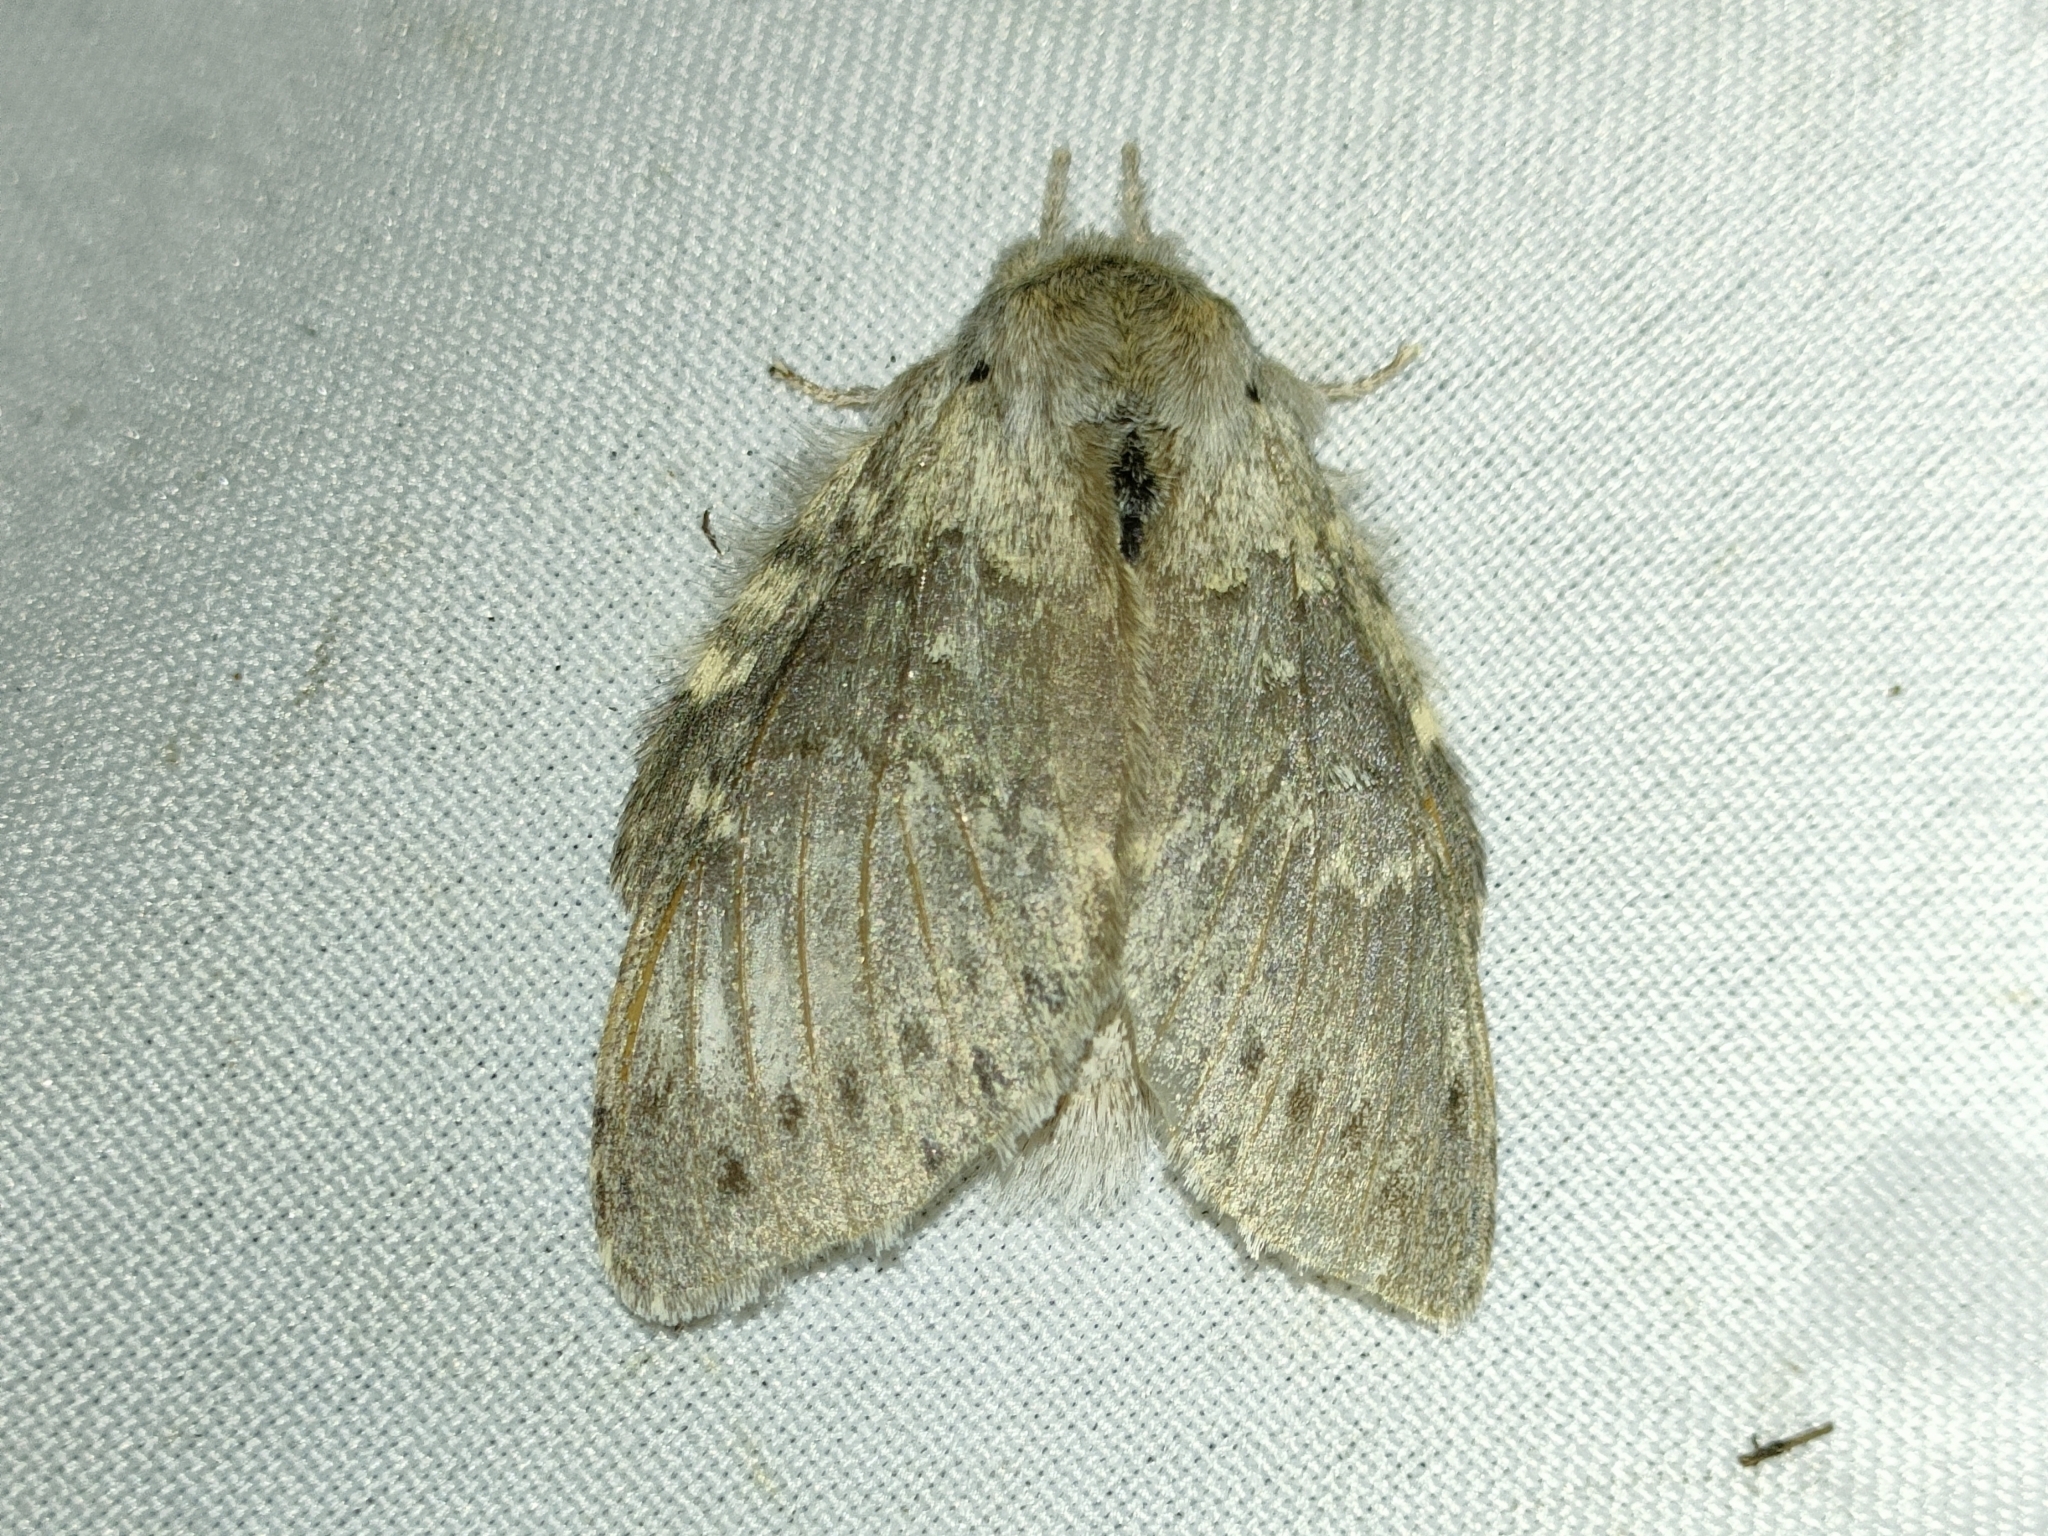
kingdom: Animalia
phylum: Arthropoda
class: Insecta
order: Lepidoptera
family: Notodontidae
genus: Stauropus
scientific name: Stauropus fagi
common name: Lobster moth
